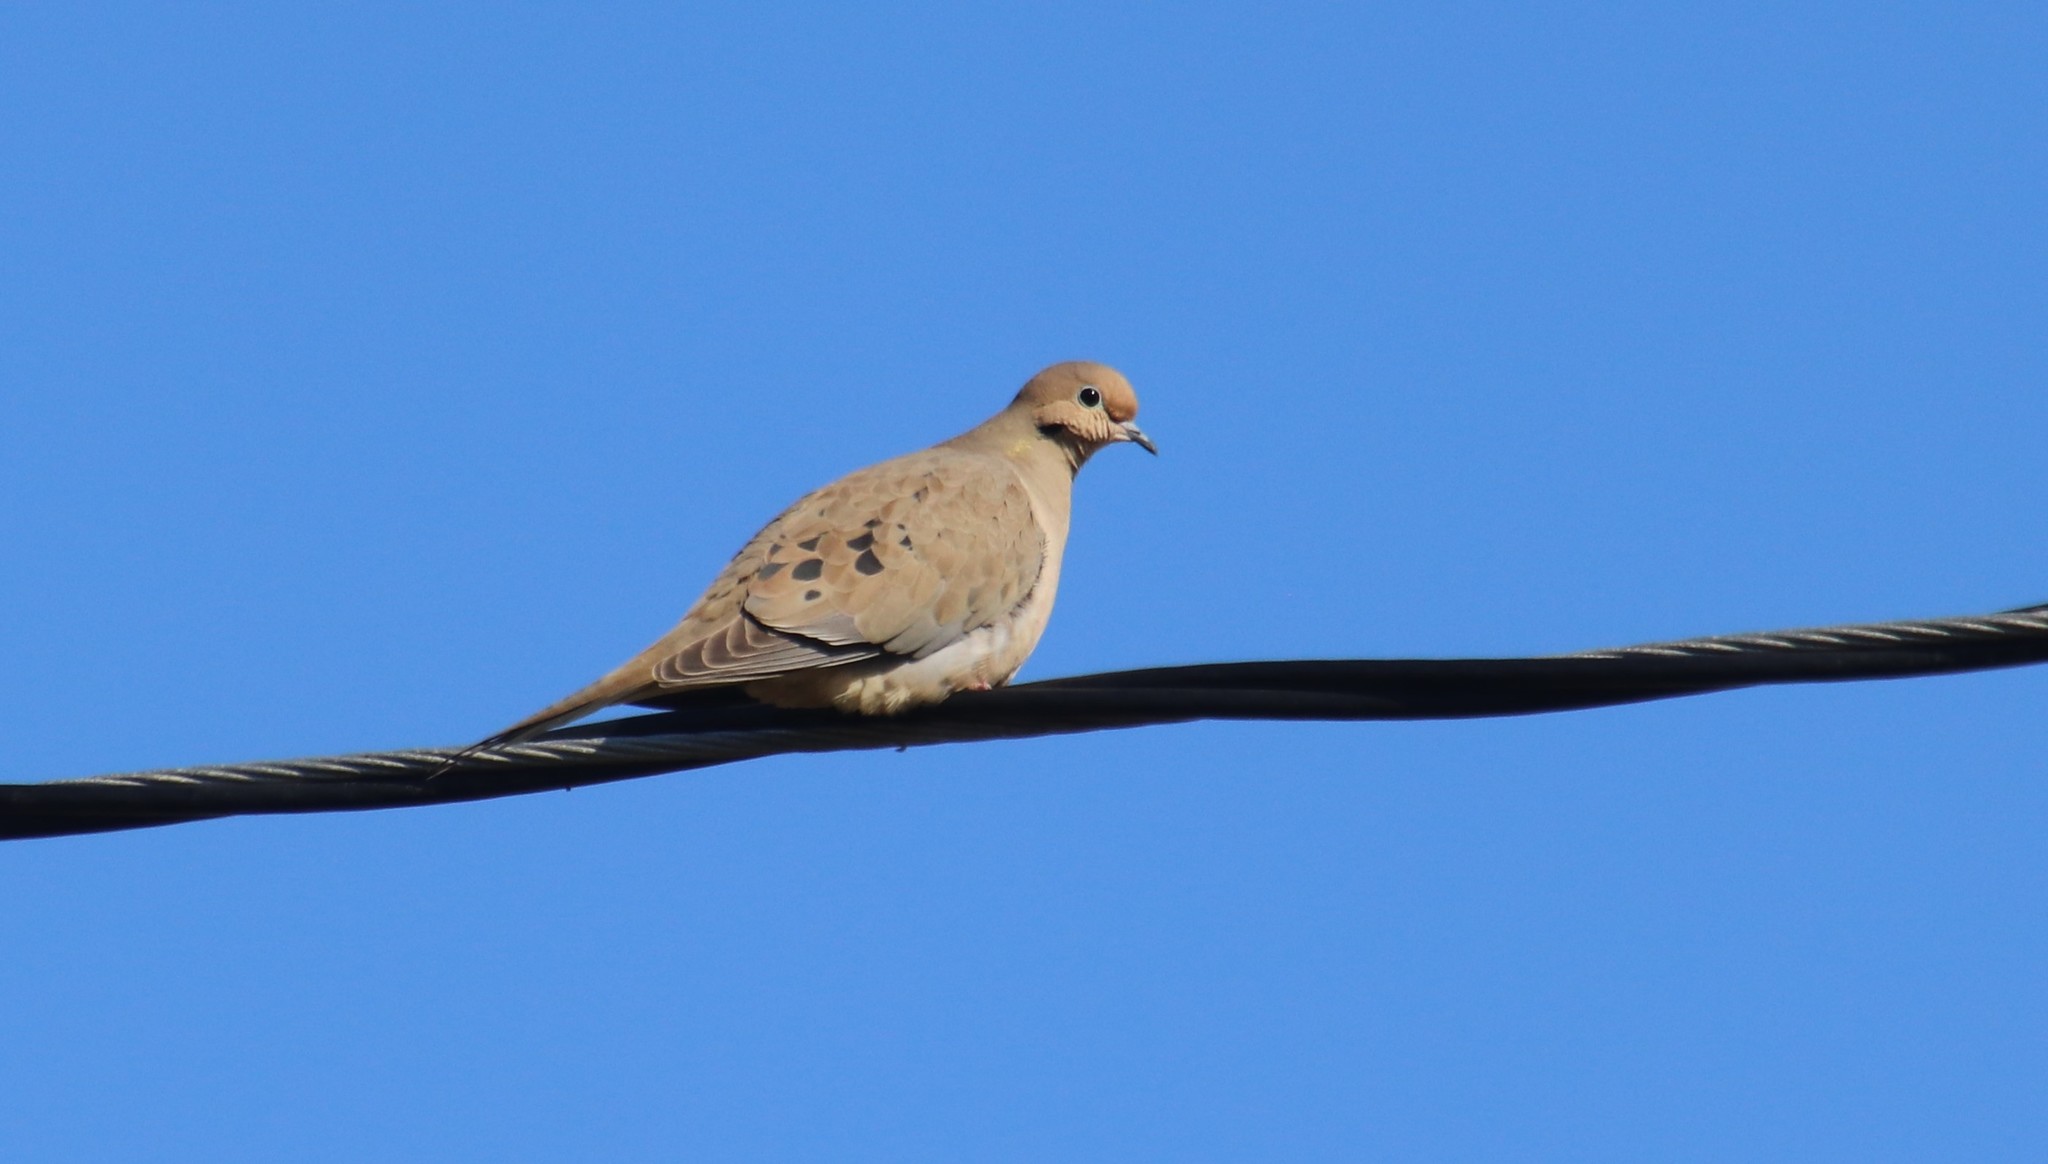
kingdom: Animalia
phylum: Chordata
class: Aves
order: Columbiformes
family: Columbidae
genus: Zenaida
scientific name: Zenaida macroura
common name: Mourning dove
